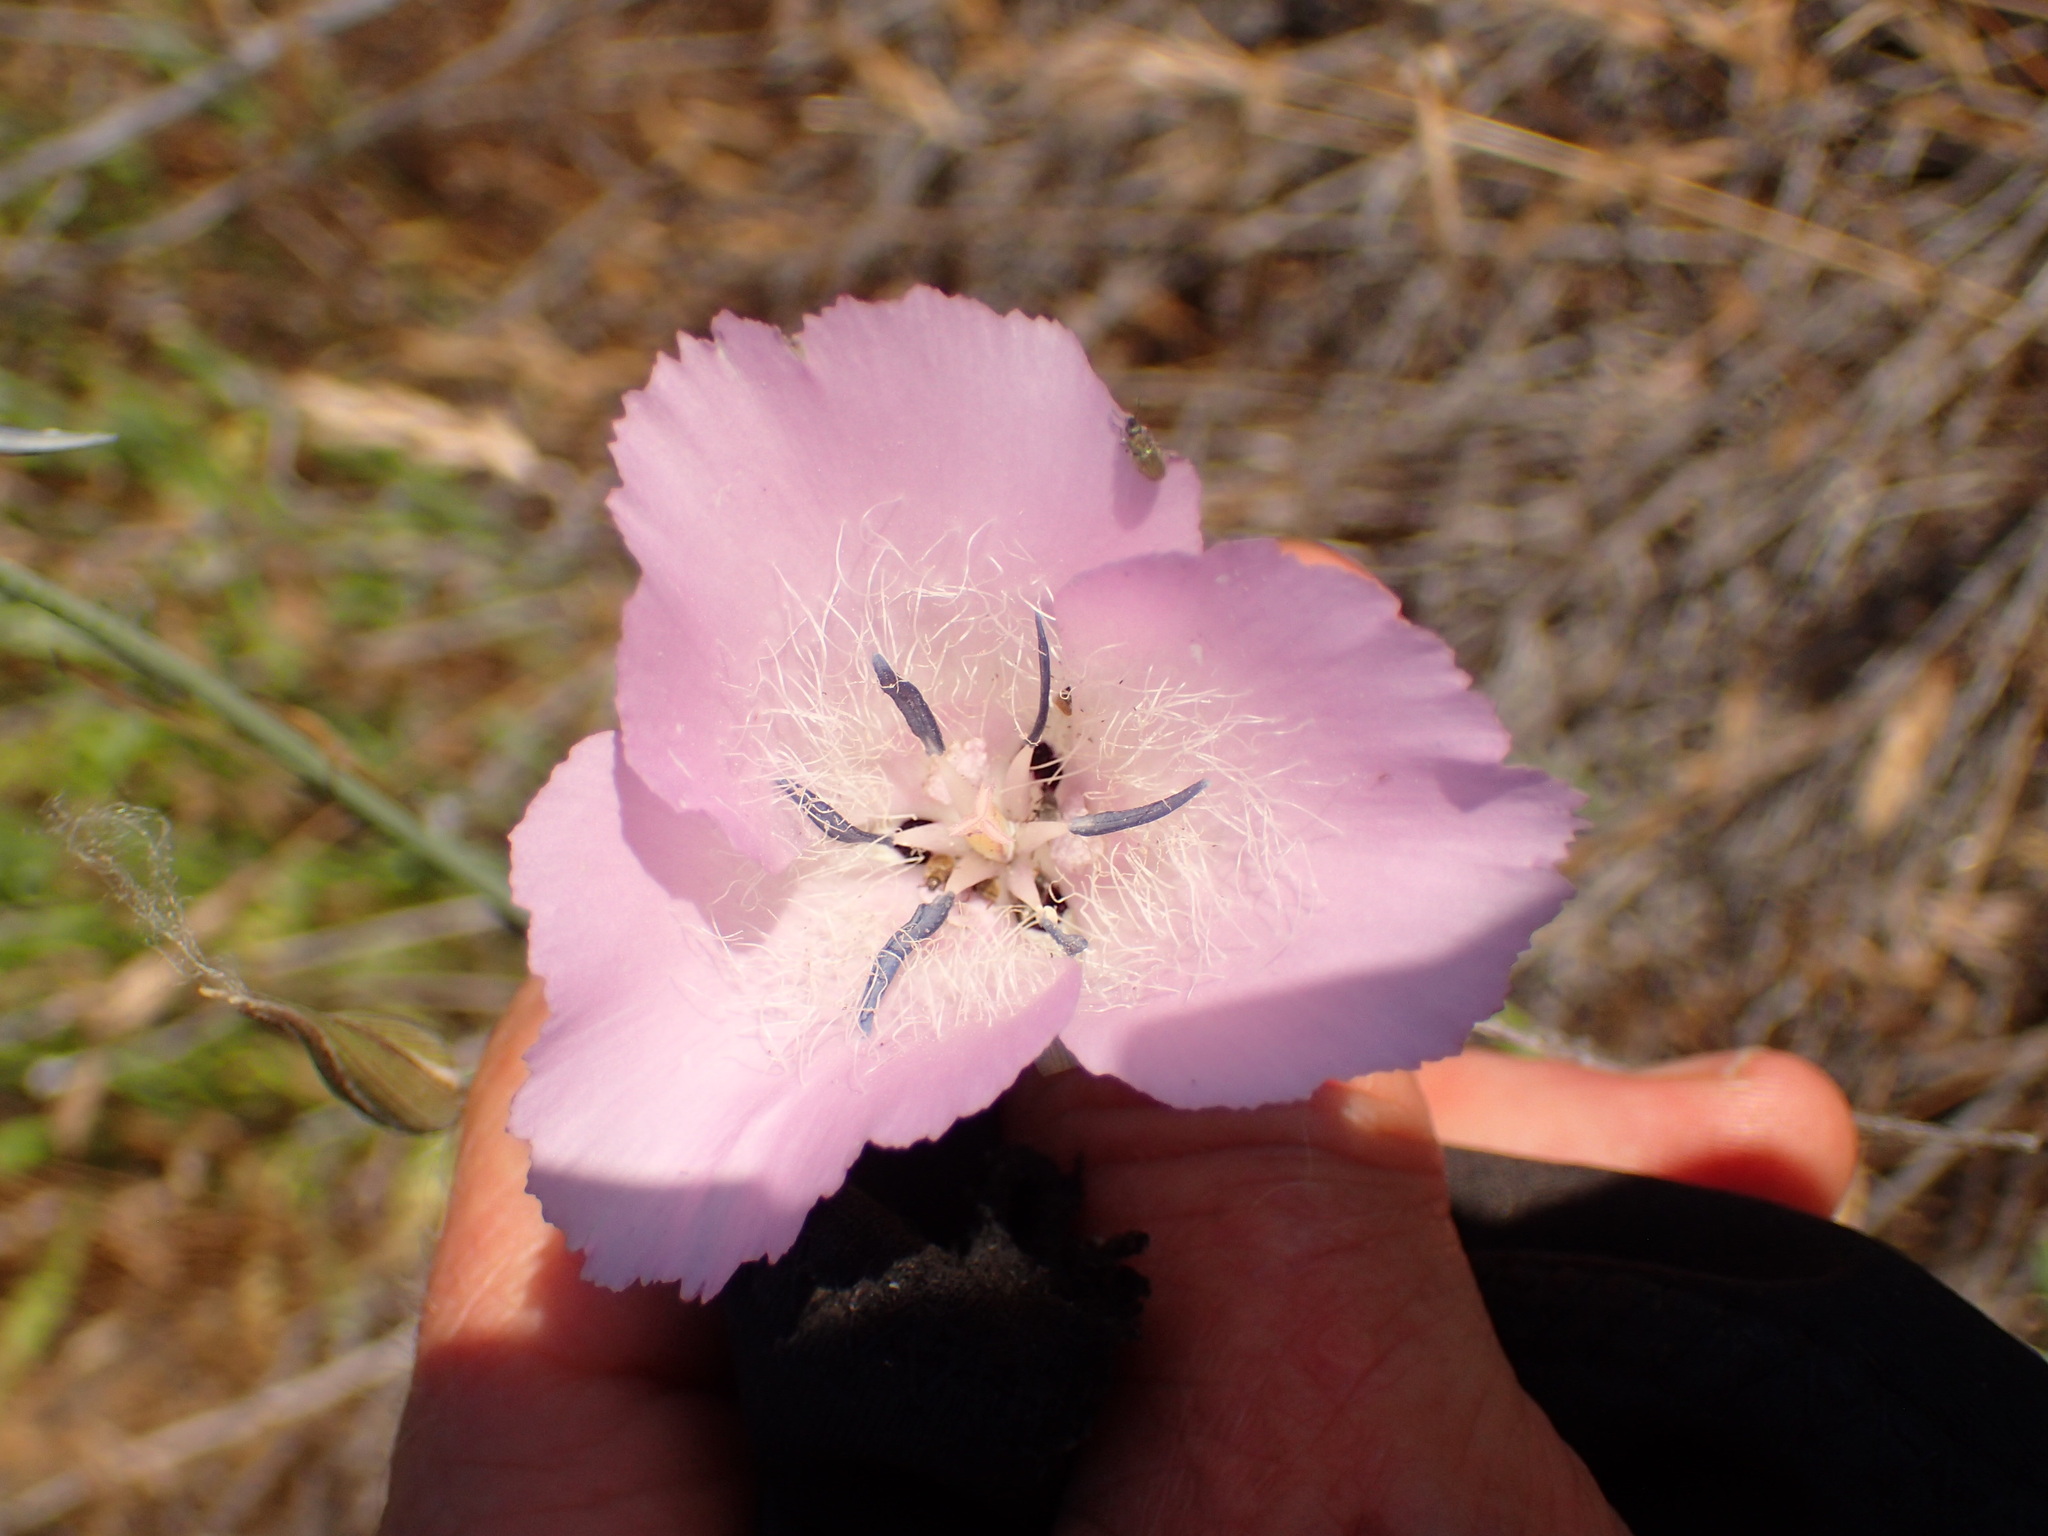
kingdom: Plantae
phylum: Tracheophyta
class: Liliopsida
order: Liliales
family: Liliaceae
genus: Calochortus
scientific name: Calochortus splendens
